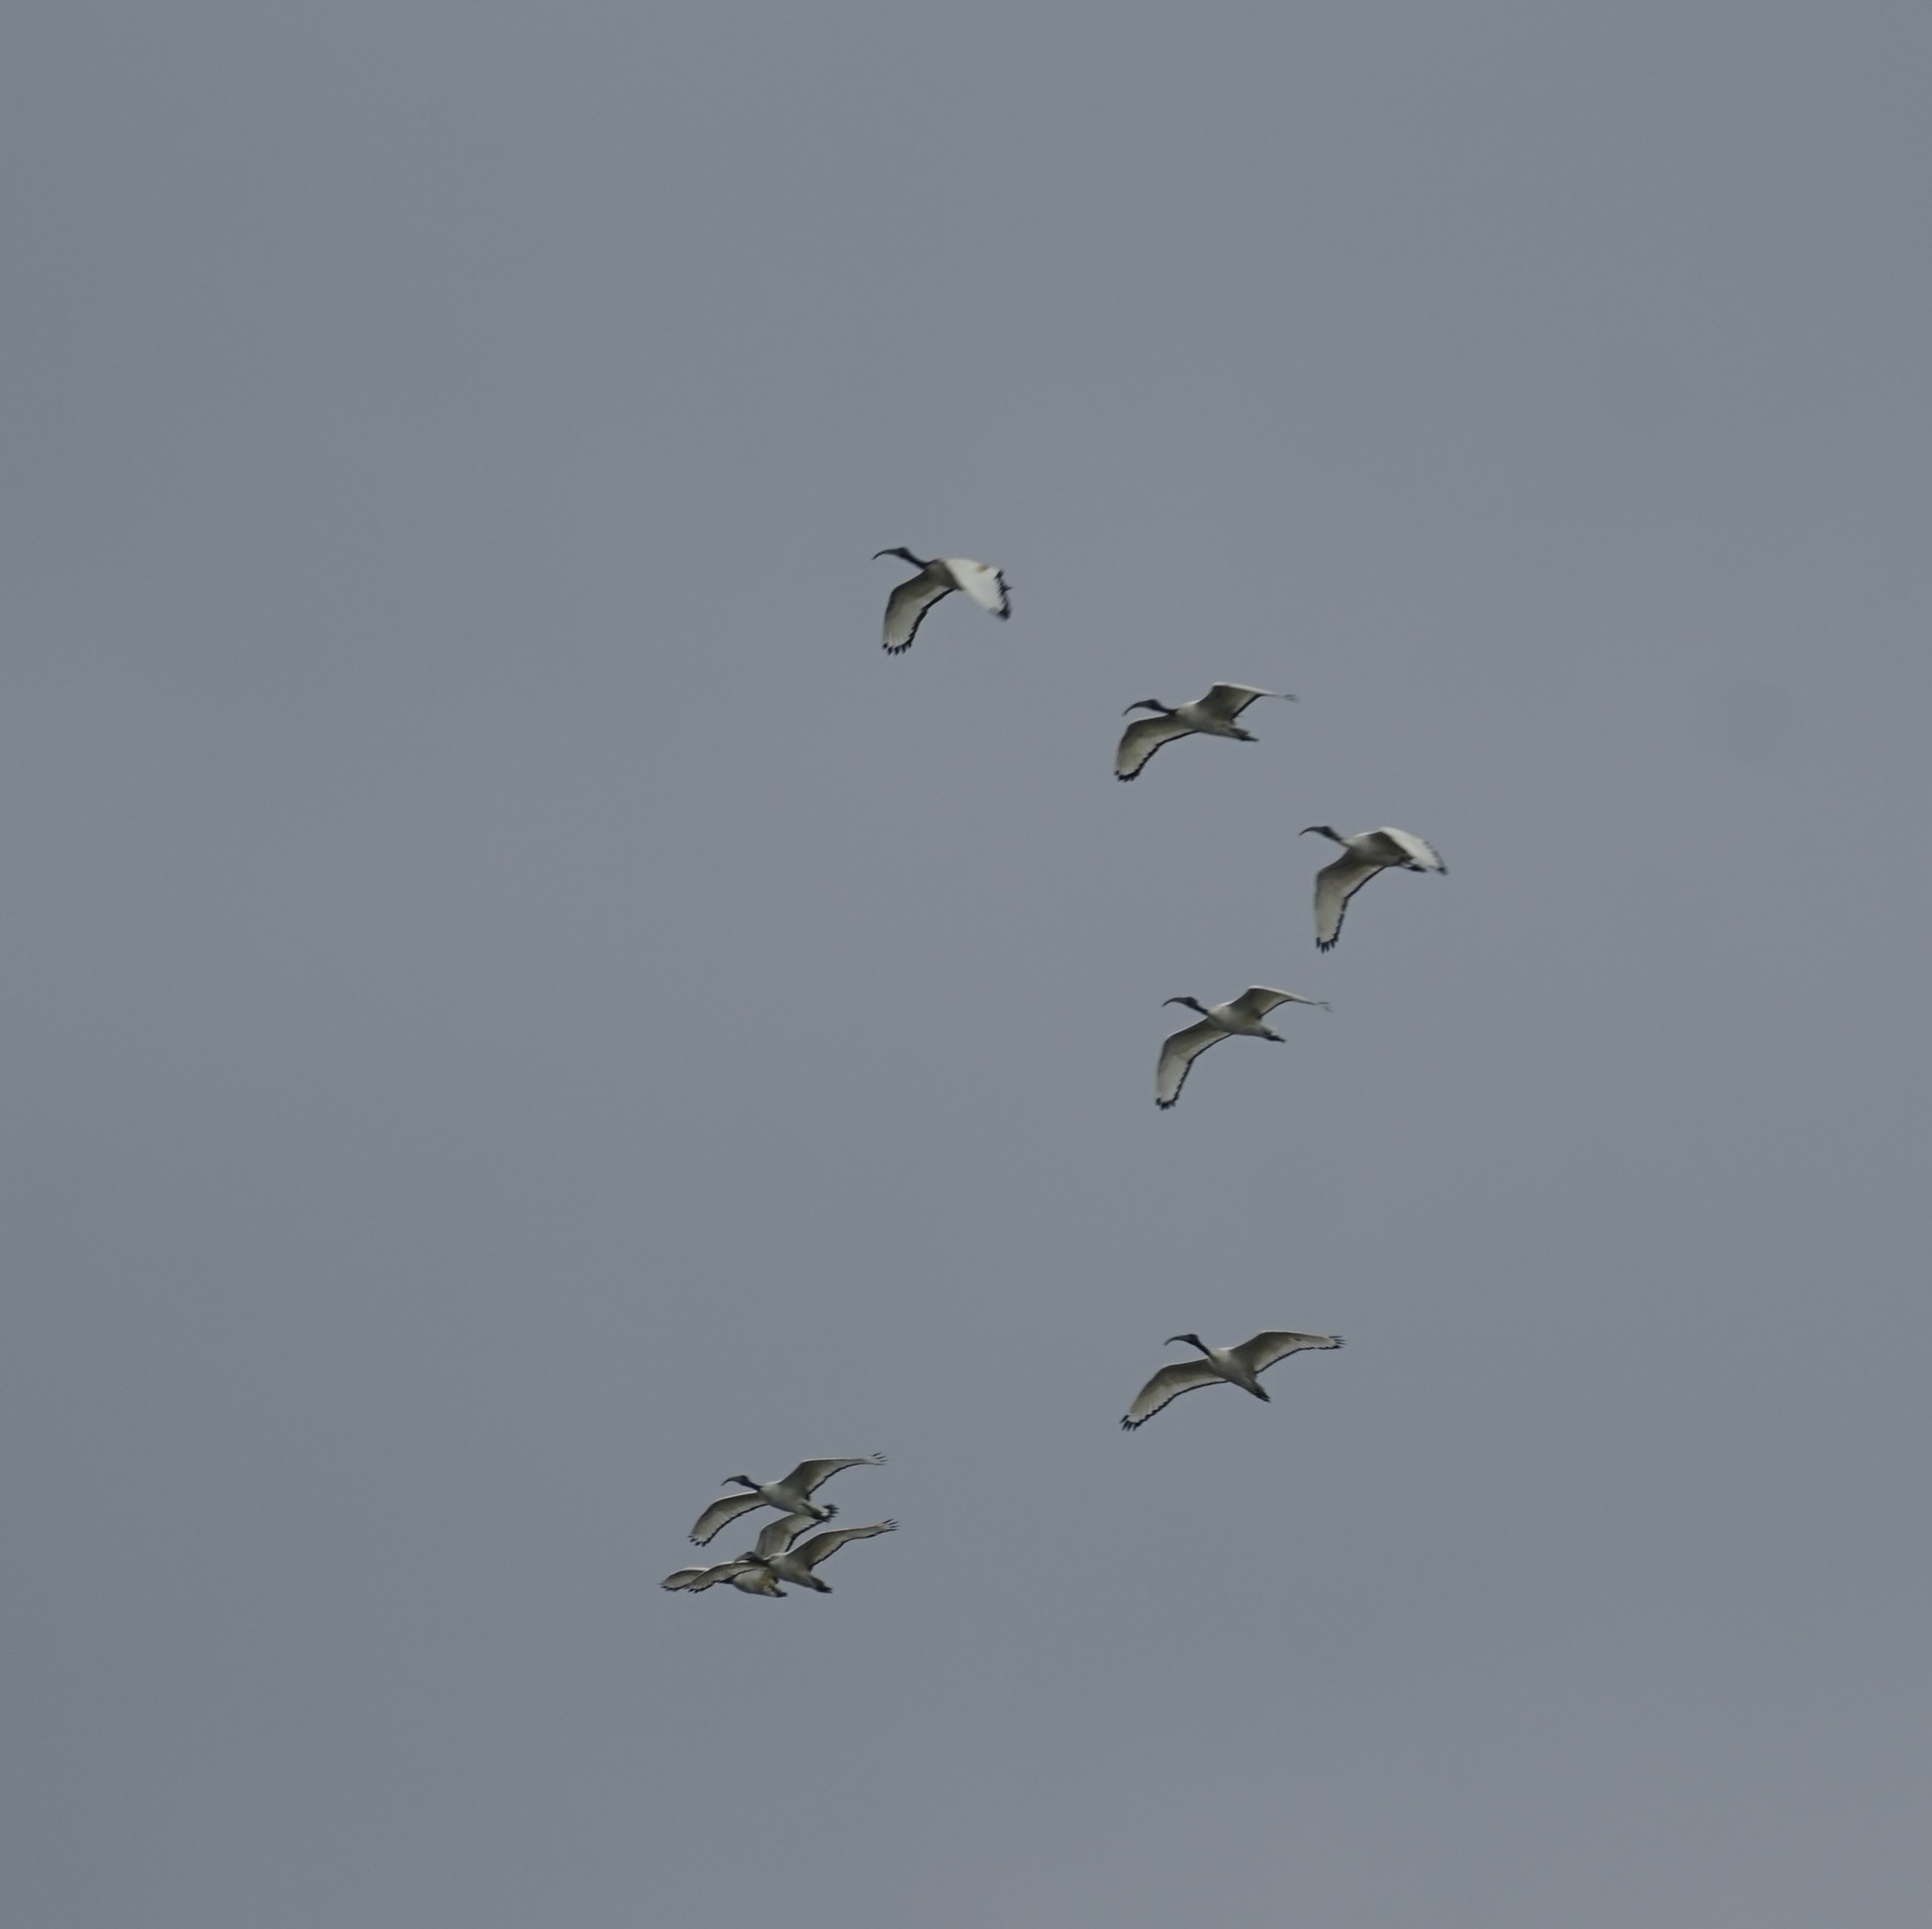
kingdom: Animalia
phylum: Chordata
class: Aves
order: Pelecaniformes
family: Threskiornithidae
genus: Threskiornis
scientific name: Threskiornis aethiopicus
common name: Sacred ibis
